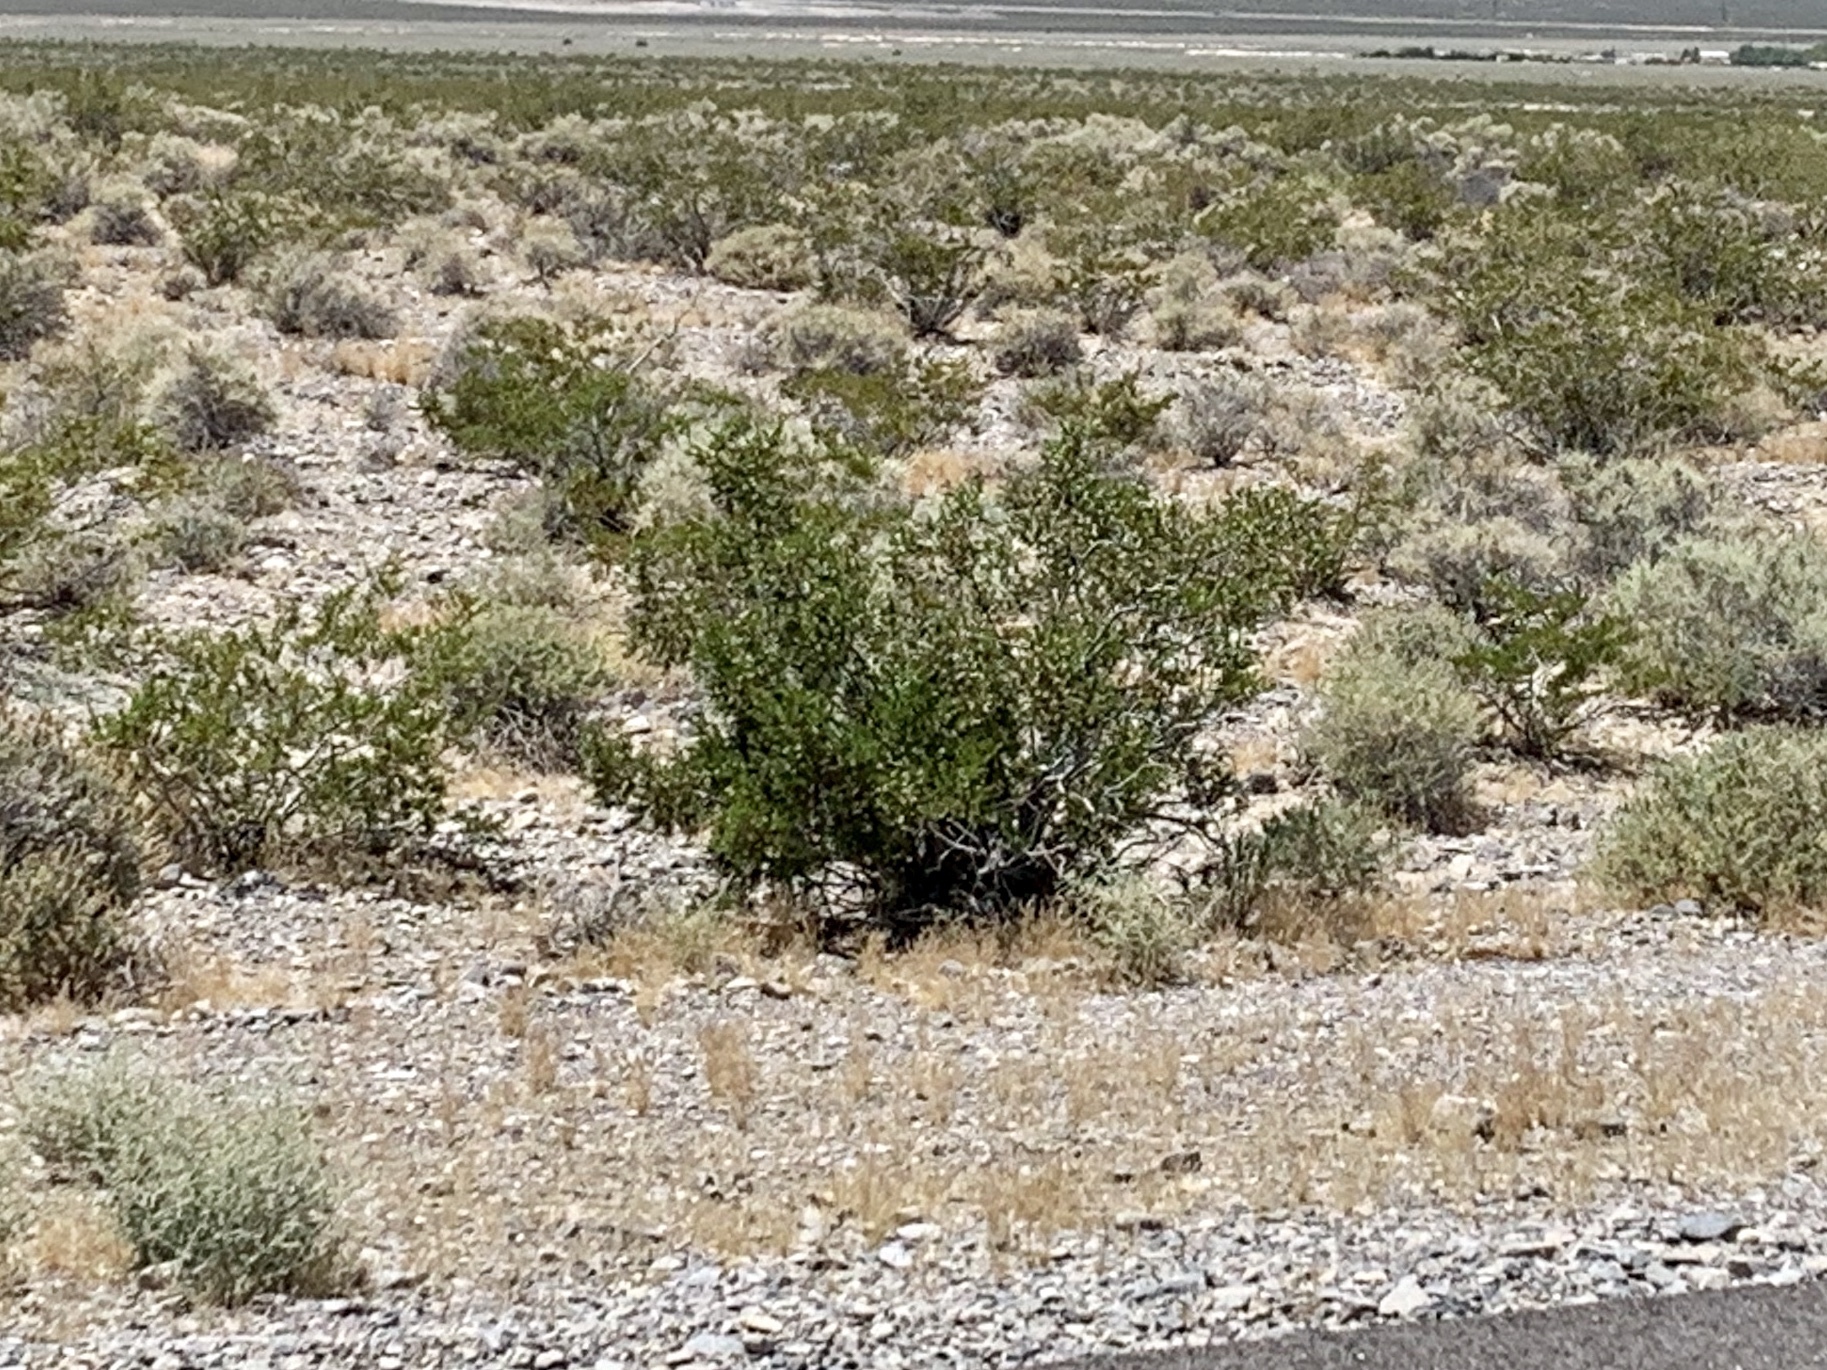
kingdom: Plantae
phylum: Tracheophyta
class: Magnoliopsida
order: Zygophyllales
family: Zygophyllaceae
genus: Larrea
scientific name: Larrea tridentata
